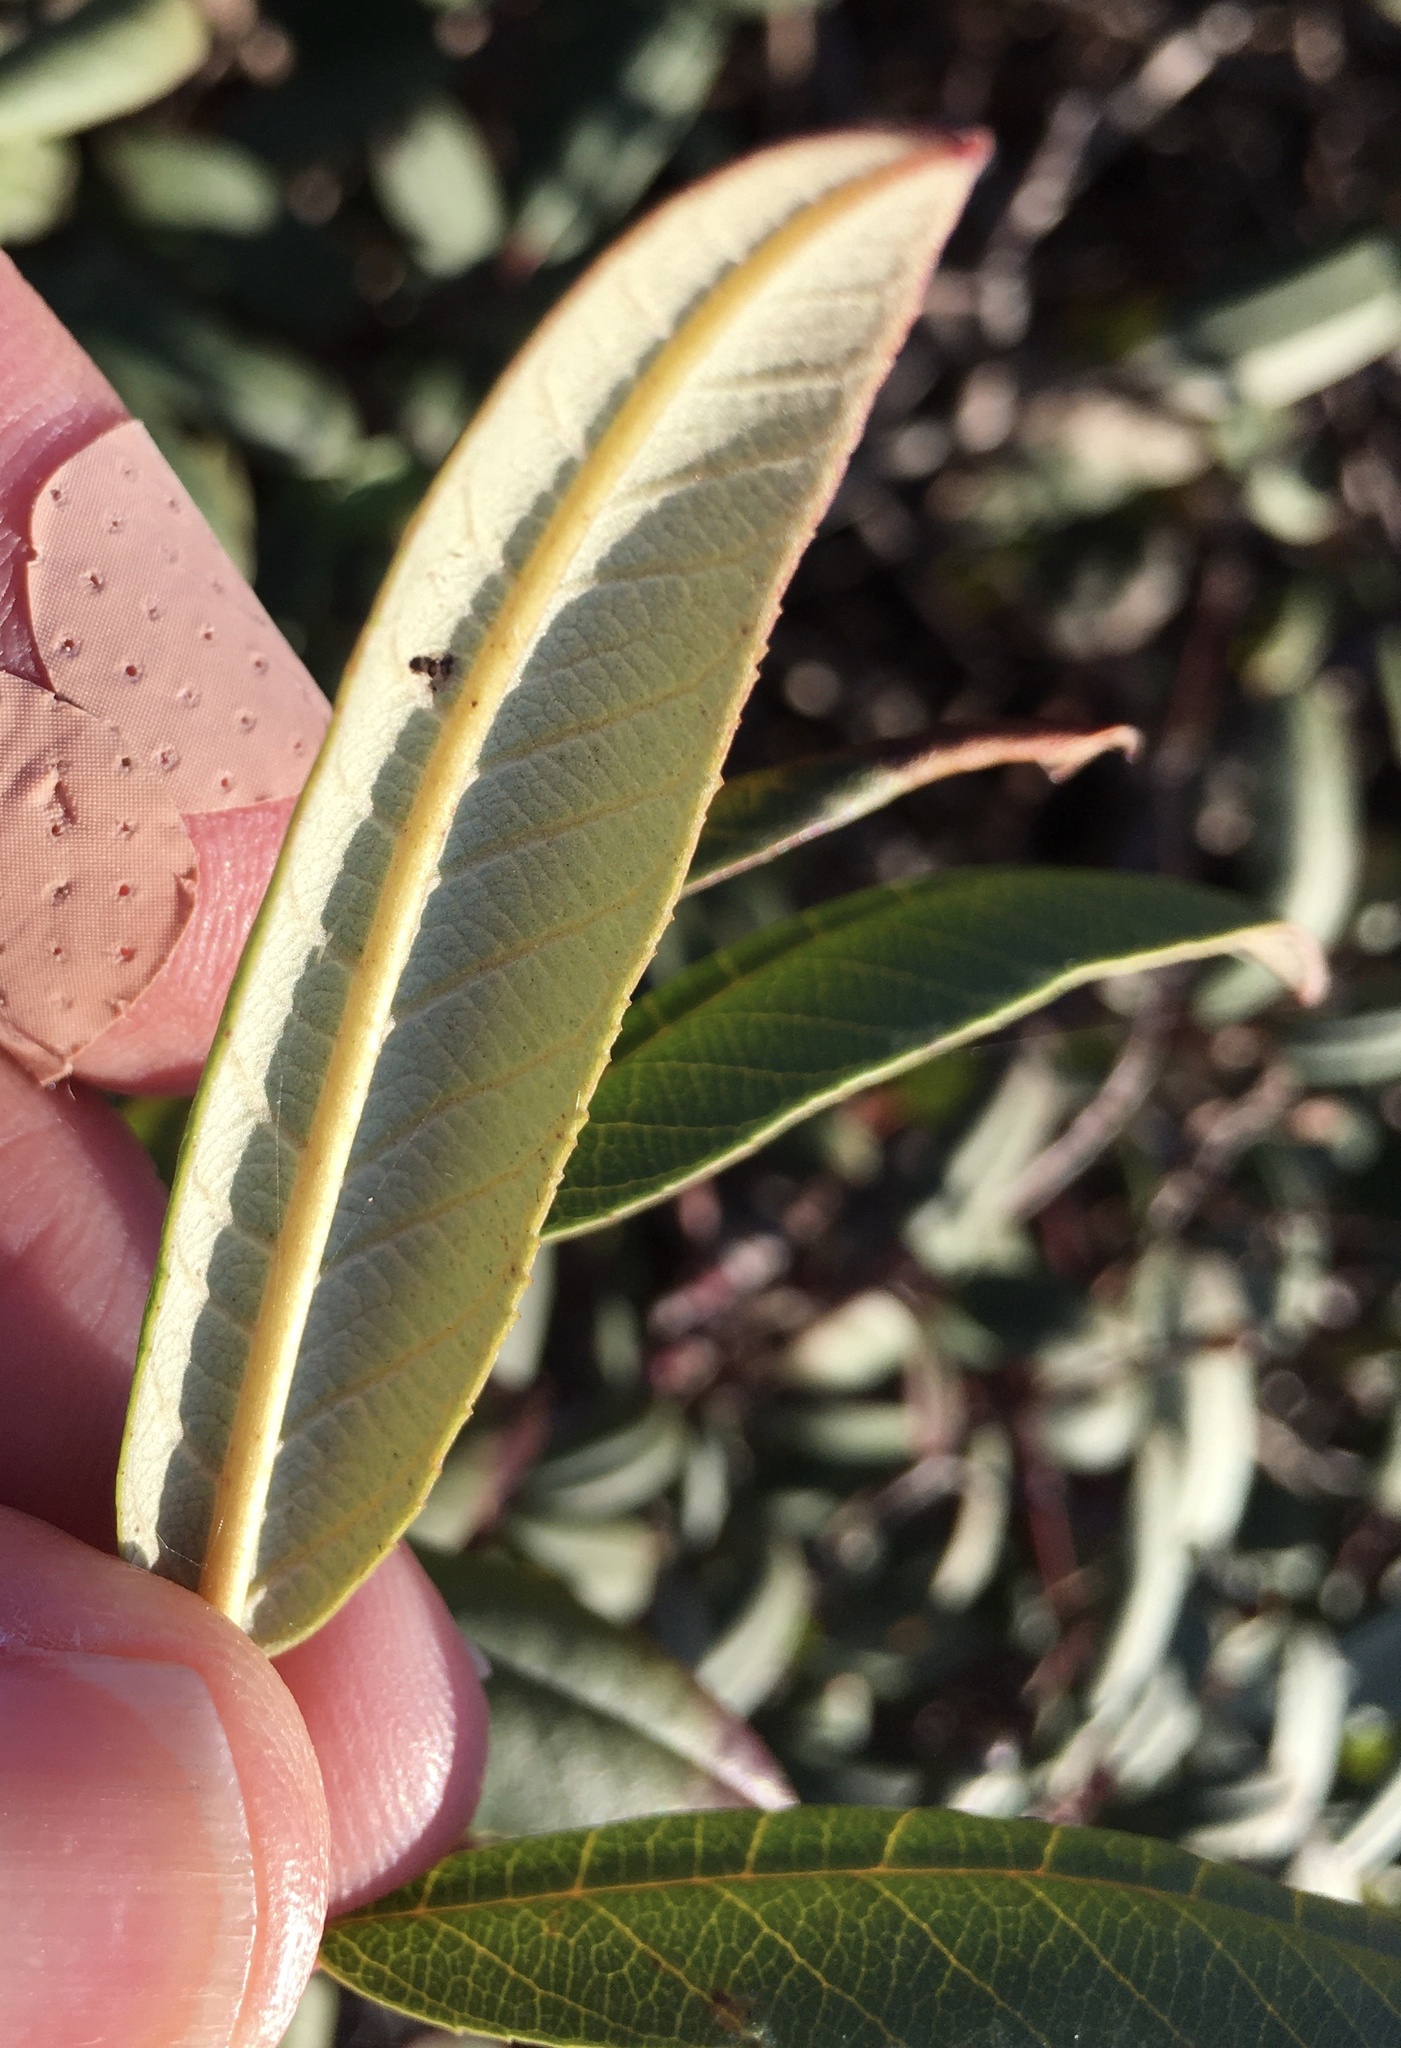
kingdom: Plantae
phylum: Tracheophyta
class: Magnoliopsida
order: Rosales
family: Rhamnaceae
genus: Frangula
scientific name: Frangula californica
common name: California buckthorn
